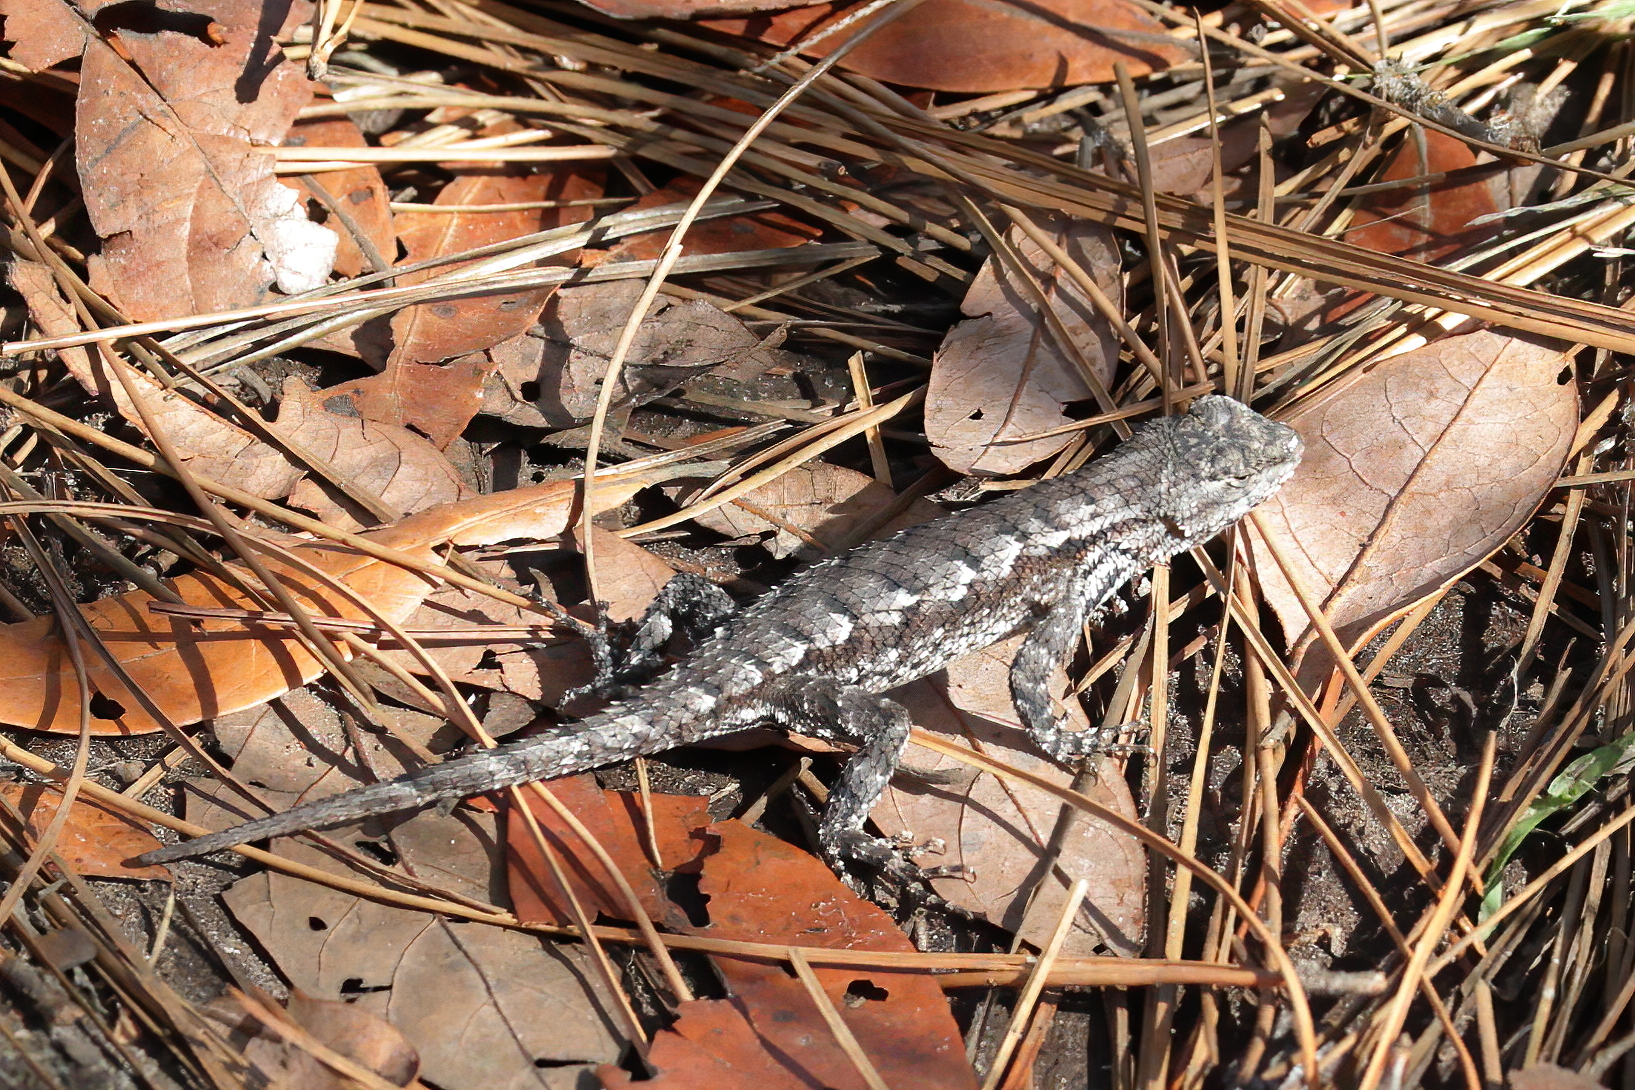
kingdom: Animalia
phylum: Chordata
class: Squamata
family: Phrynosomatidae
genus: Sceloporus
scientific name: Sceloporus undulatus
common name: Eastern fence lizard
